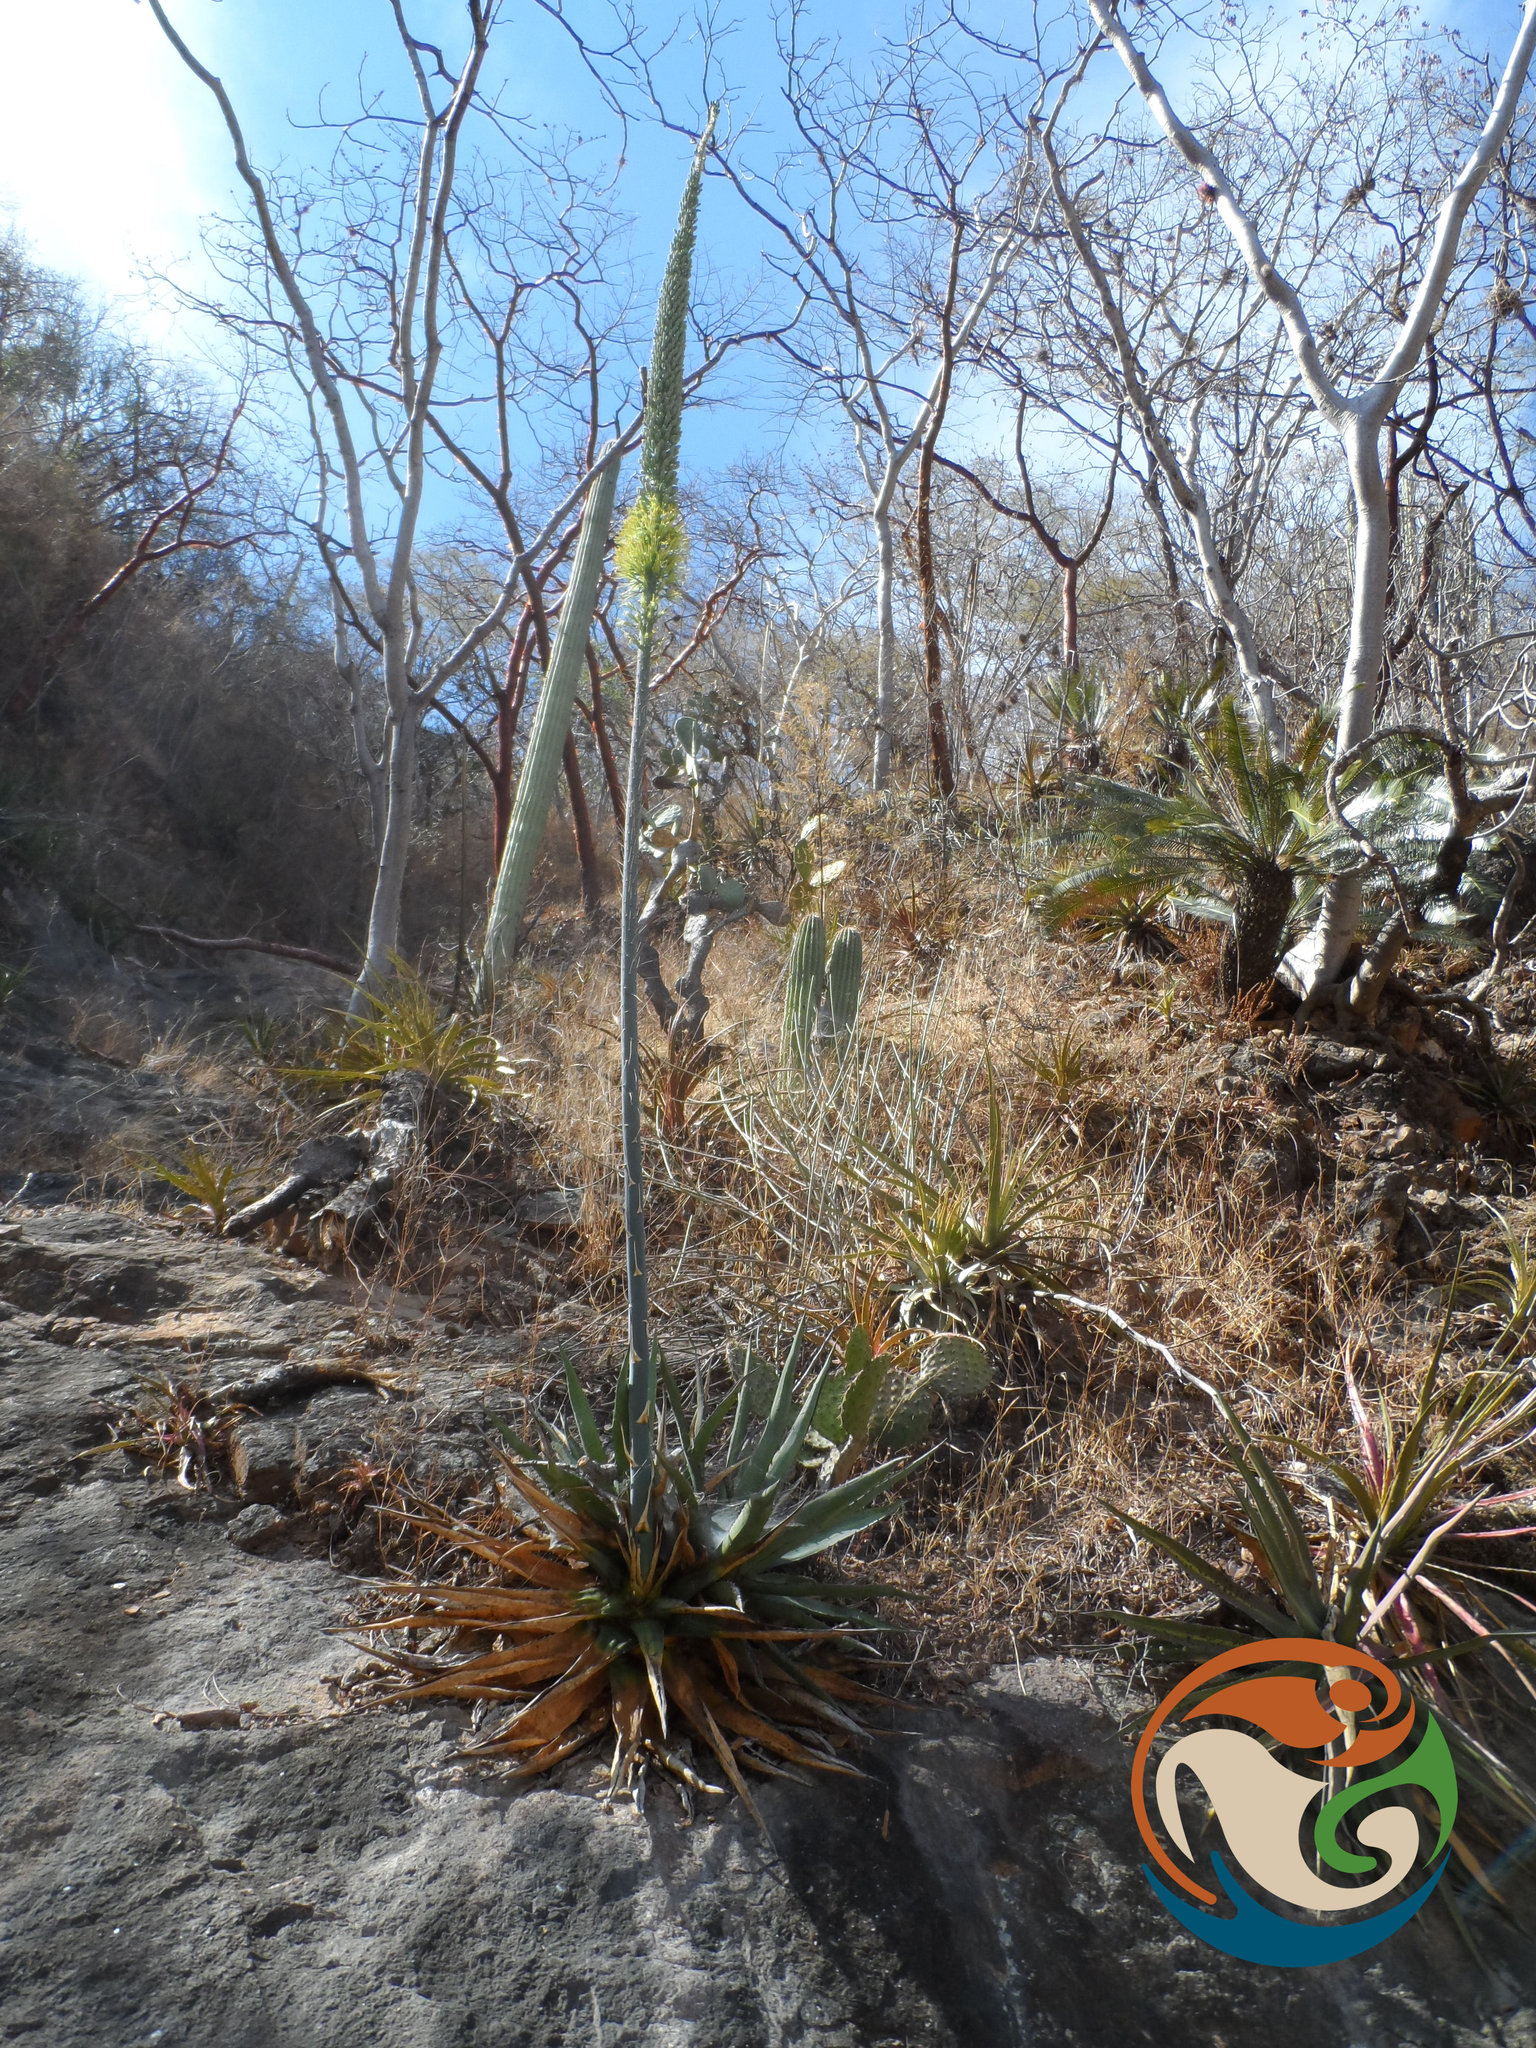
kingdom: Plantae
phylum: Tracheophyta
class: Liliopsida
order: Asparagales
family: Asparagaceae
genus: Agave
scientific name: Agave angustiarum
